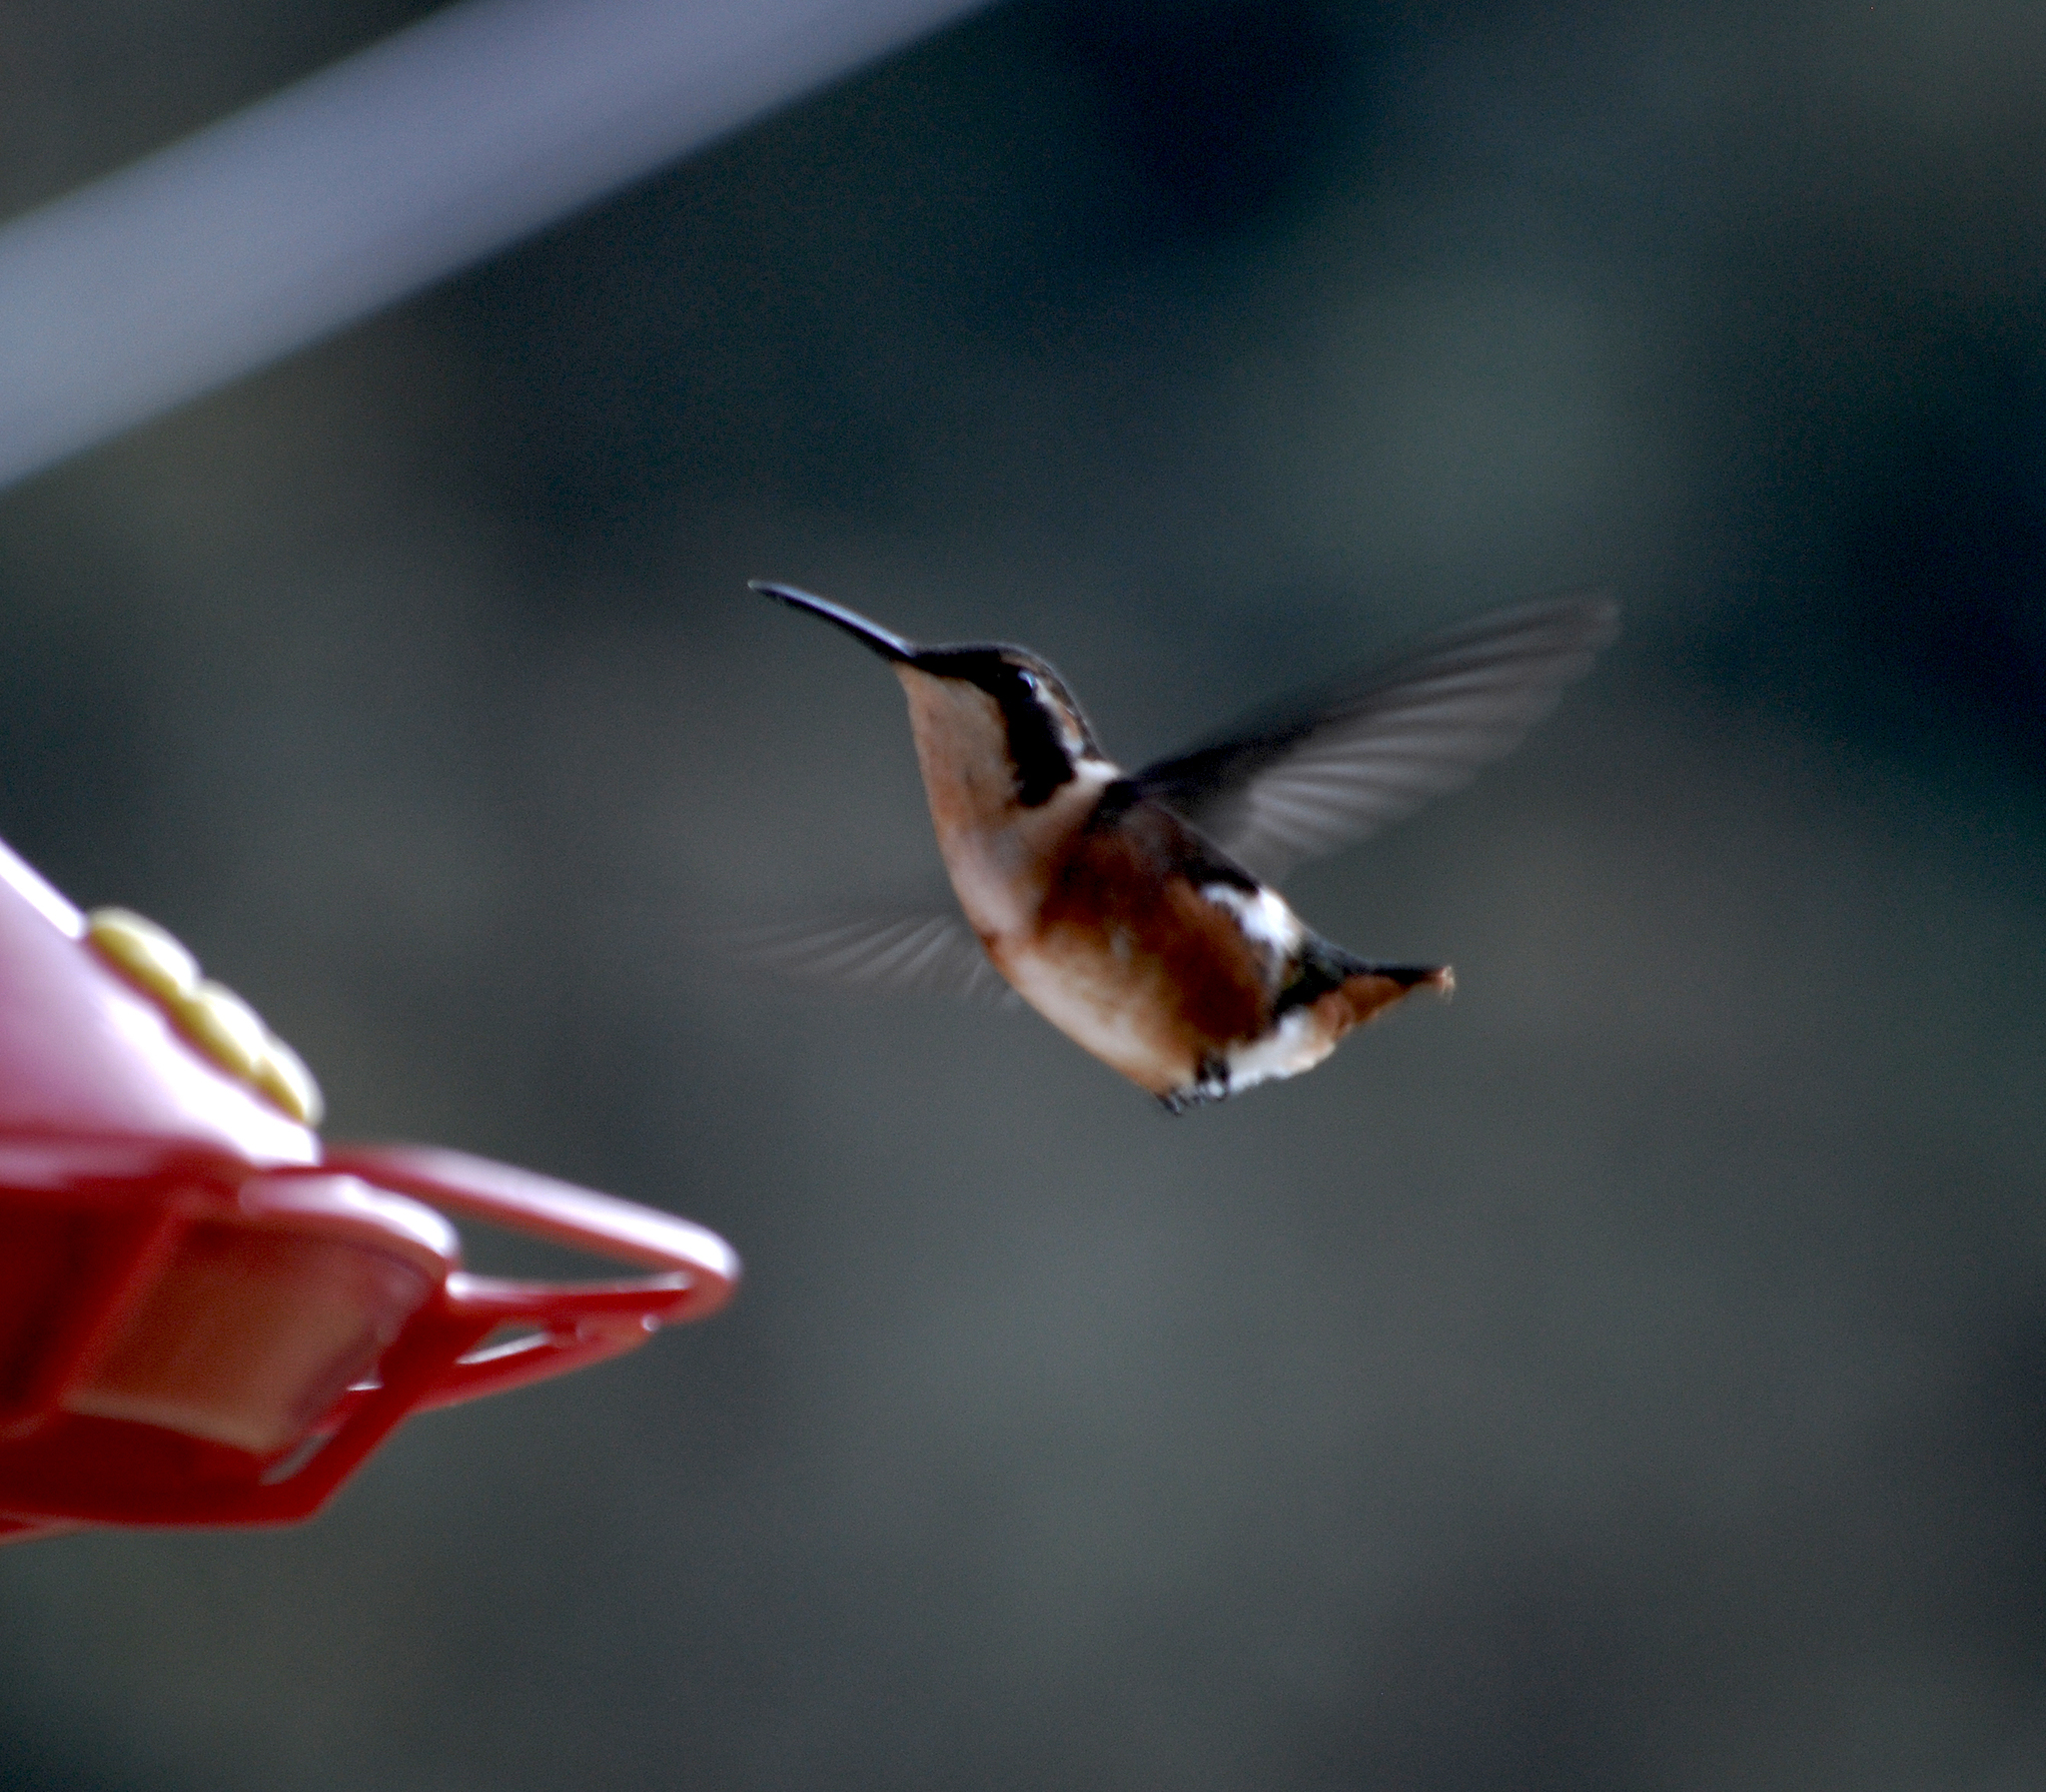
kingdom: Animalia
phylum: Chordata
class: Aves
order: Apodiformes
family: Trochilidae
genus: Chaetocercus
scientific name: Chaetocercus mulsant
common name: White-bellied woodstar
